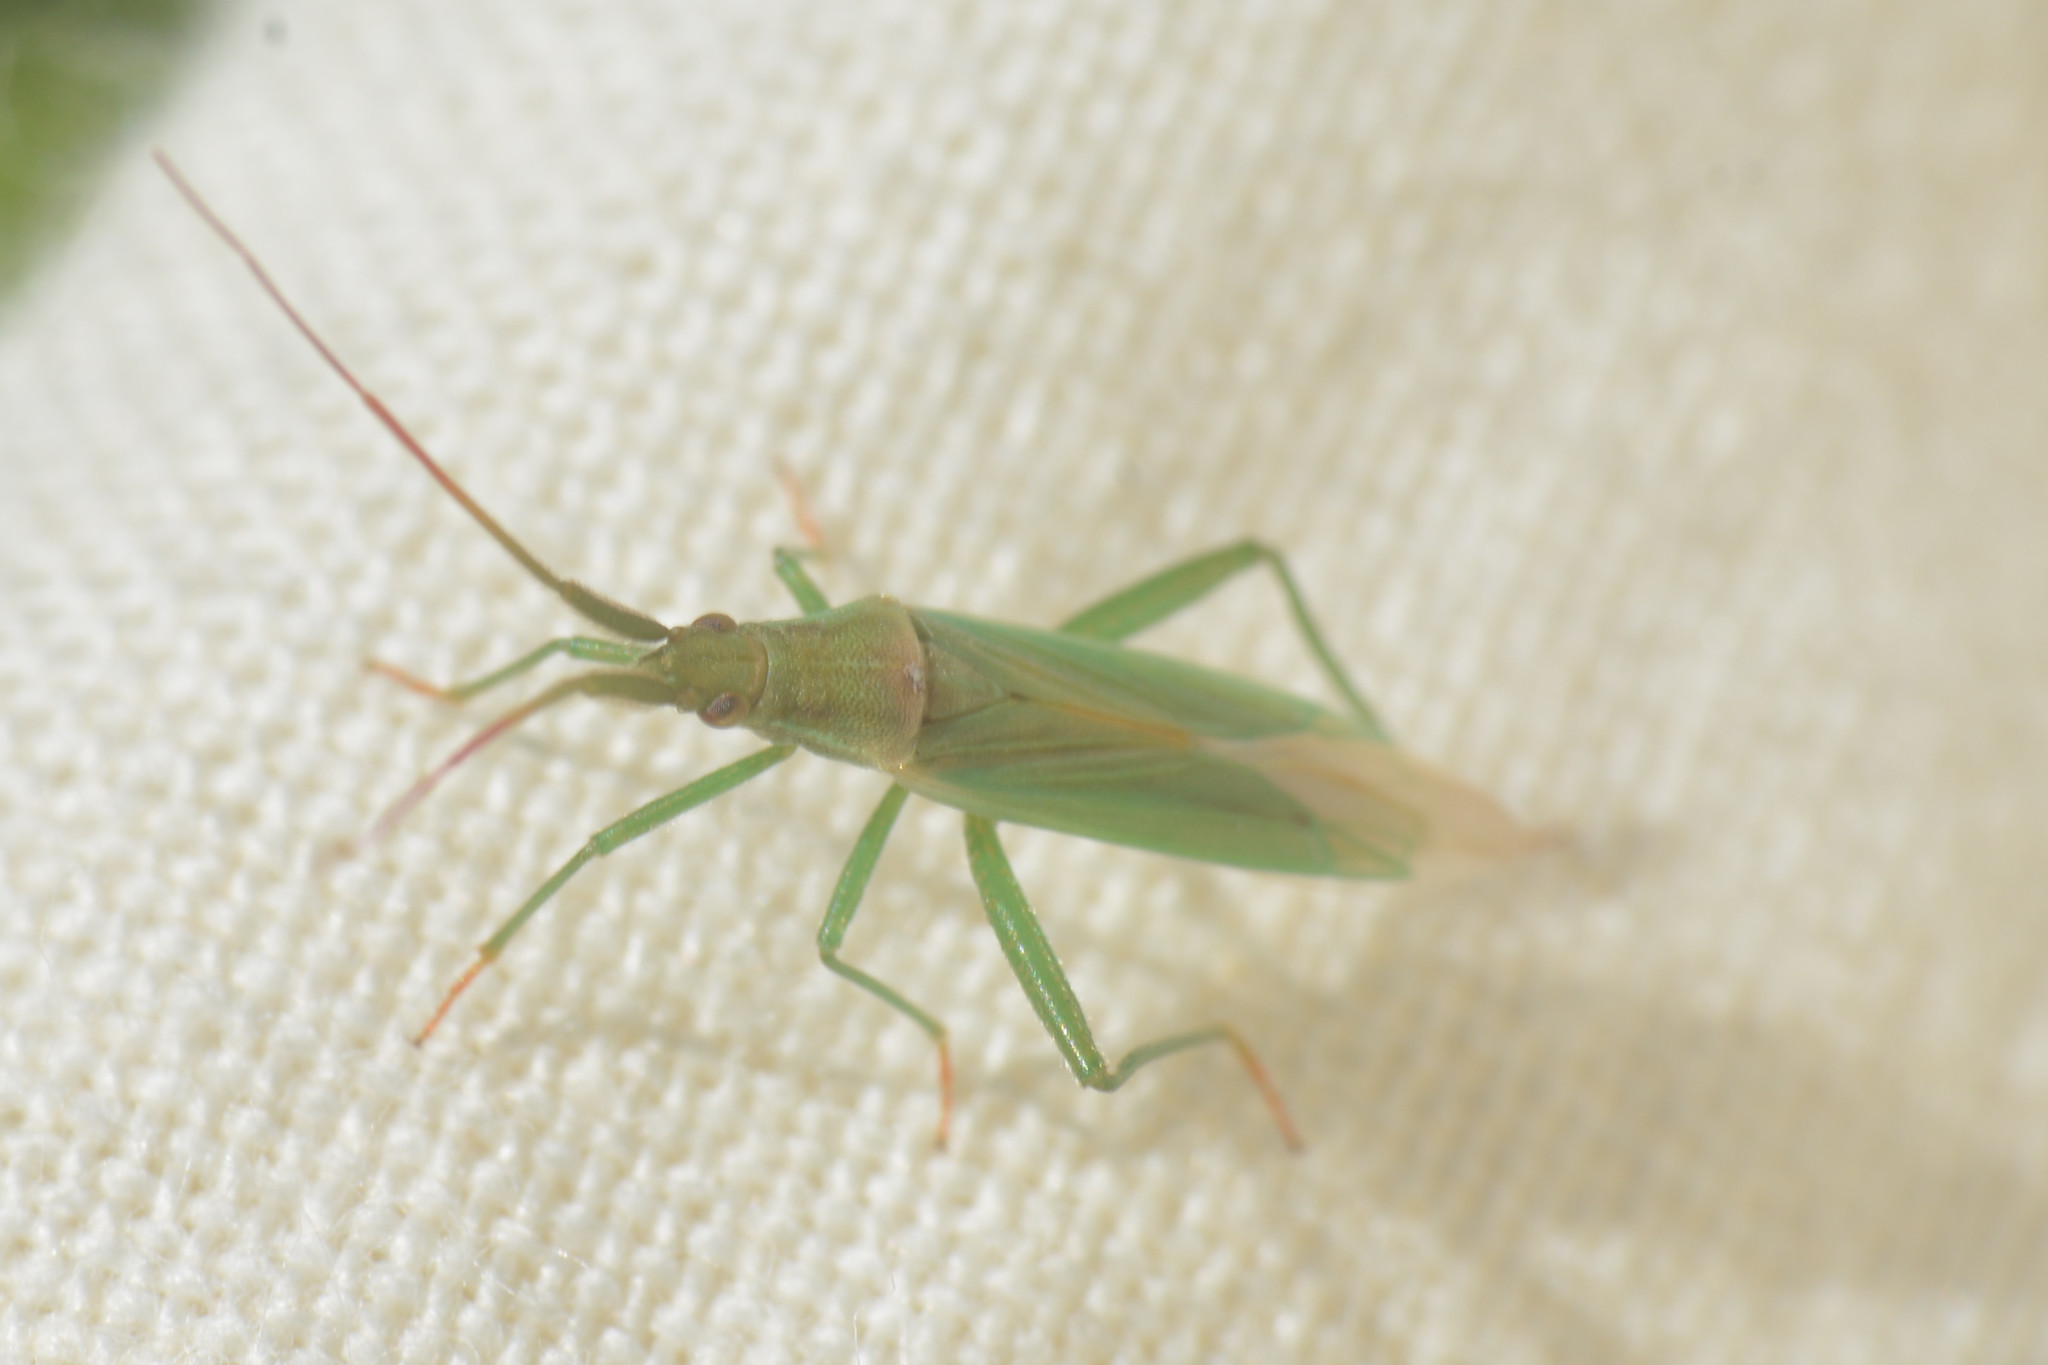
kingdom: Animalia
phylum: Arthropoda
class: Insecta
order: Hemiptera
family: Miridae
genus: Stenodema
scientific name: Stenodema laevigata
